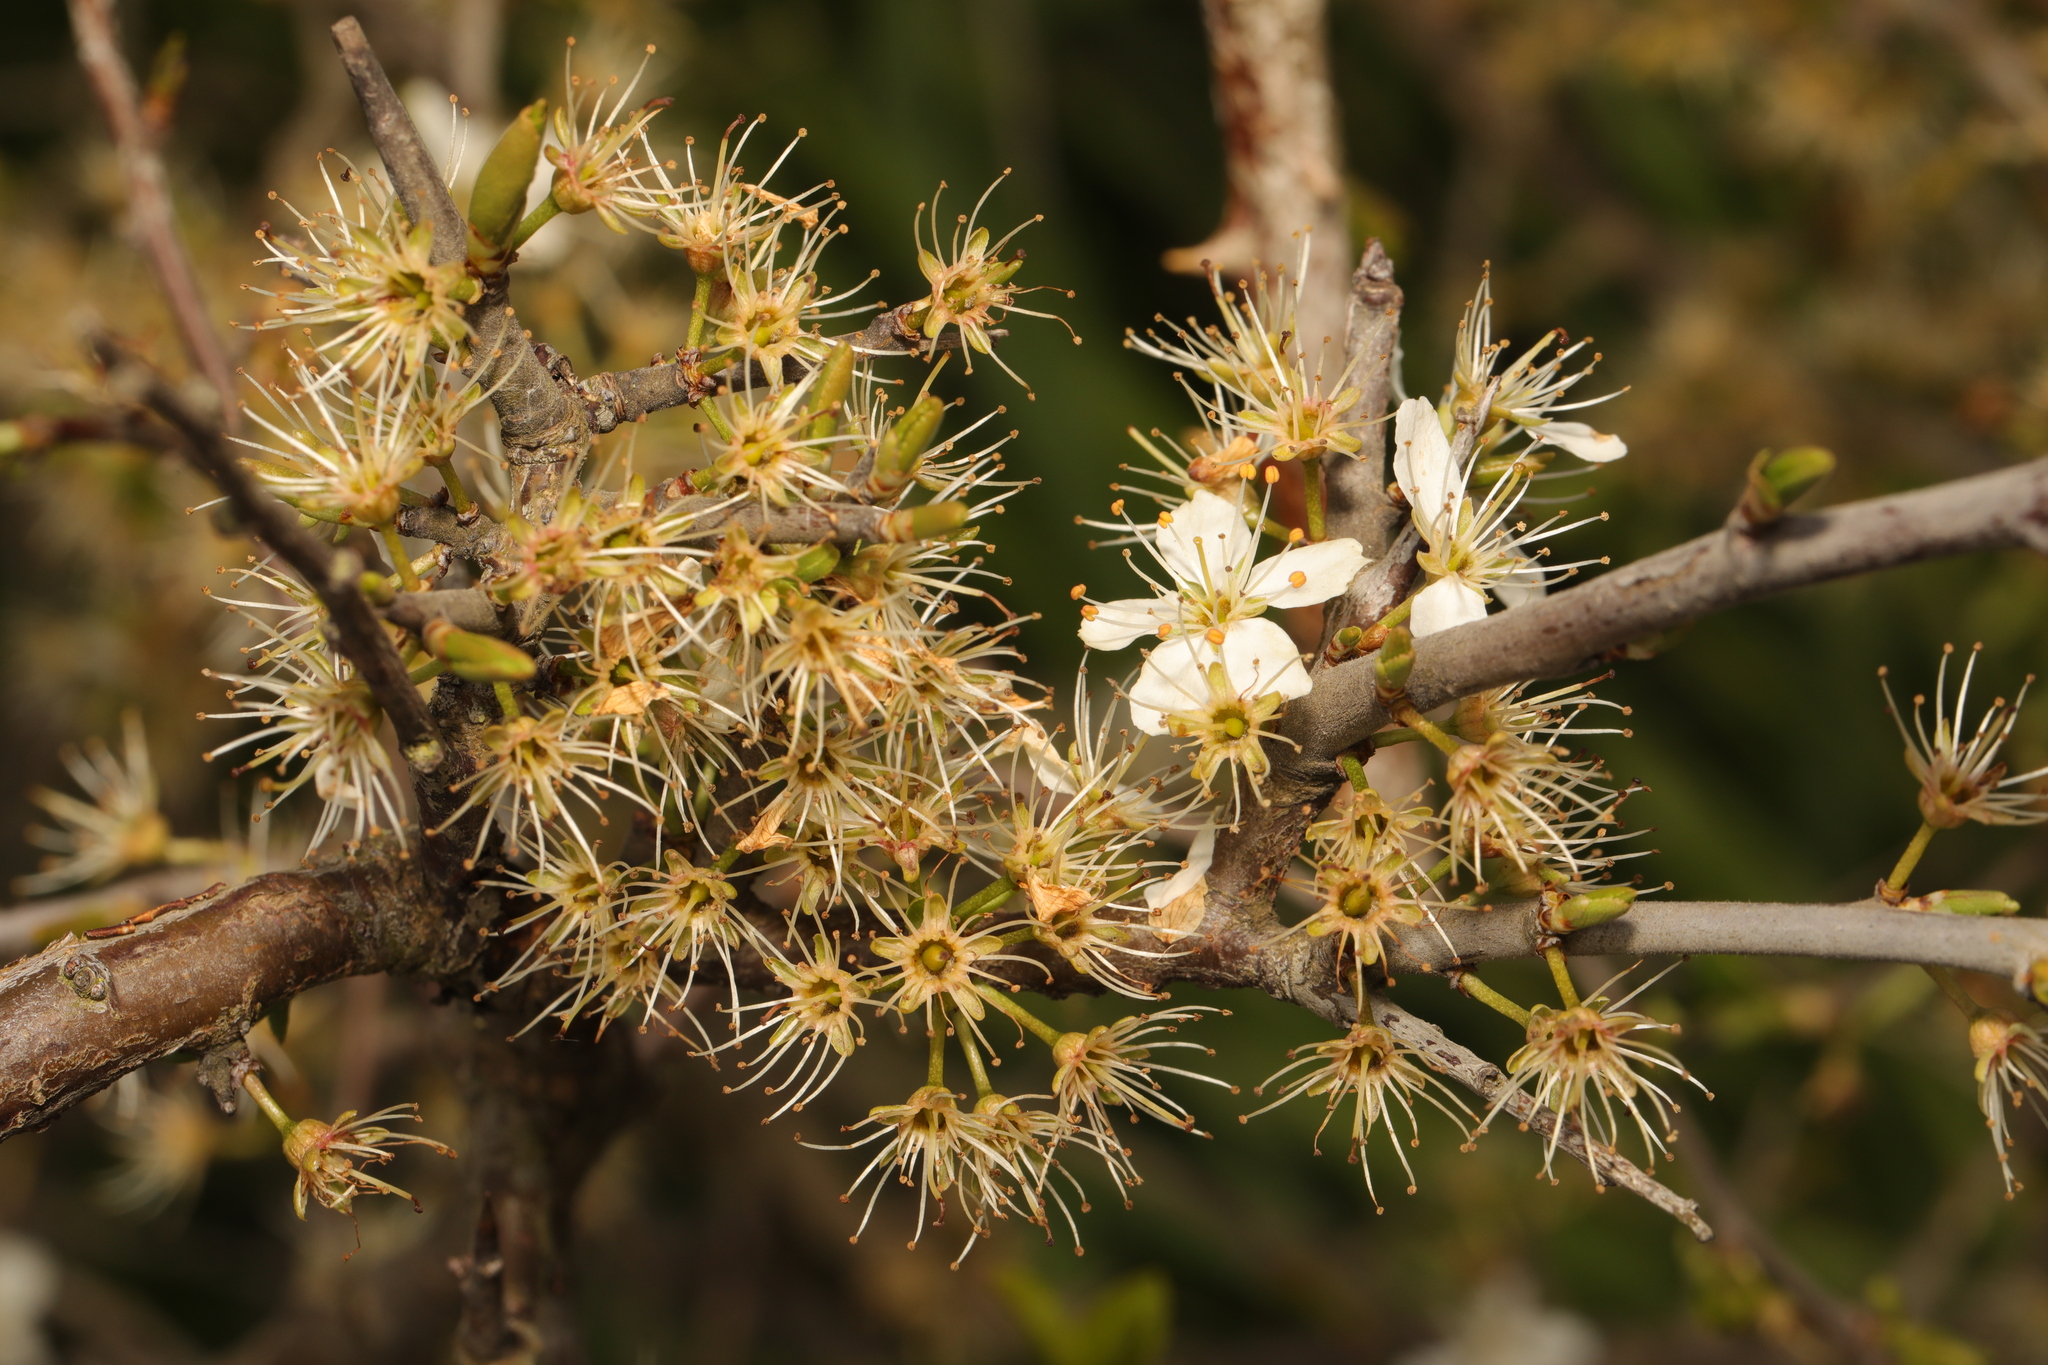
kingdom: Plantae
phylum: Tracheophyta
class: Magnoliopsida
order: Rosales
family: Rosaceae
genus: Prunus
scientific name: Prunus spinosa
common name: Blackthorn
